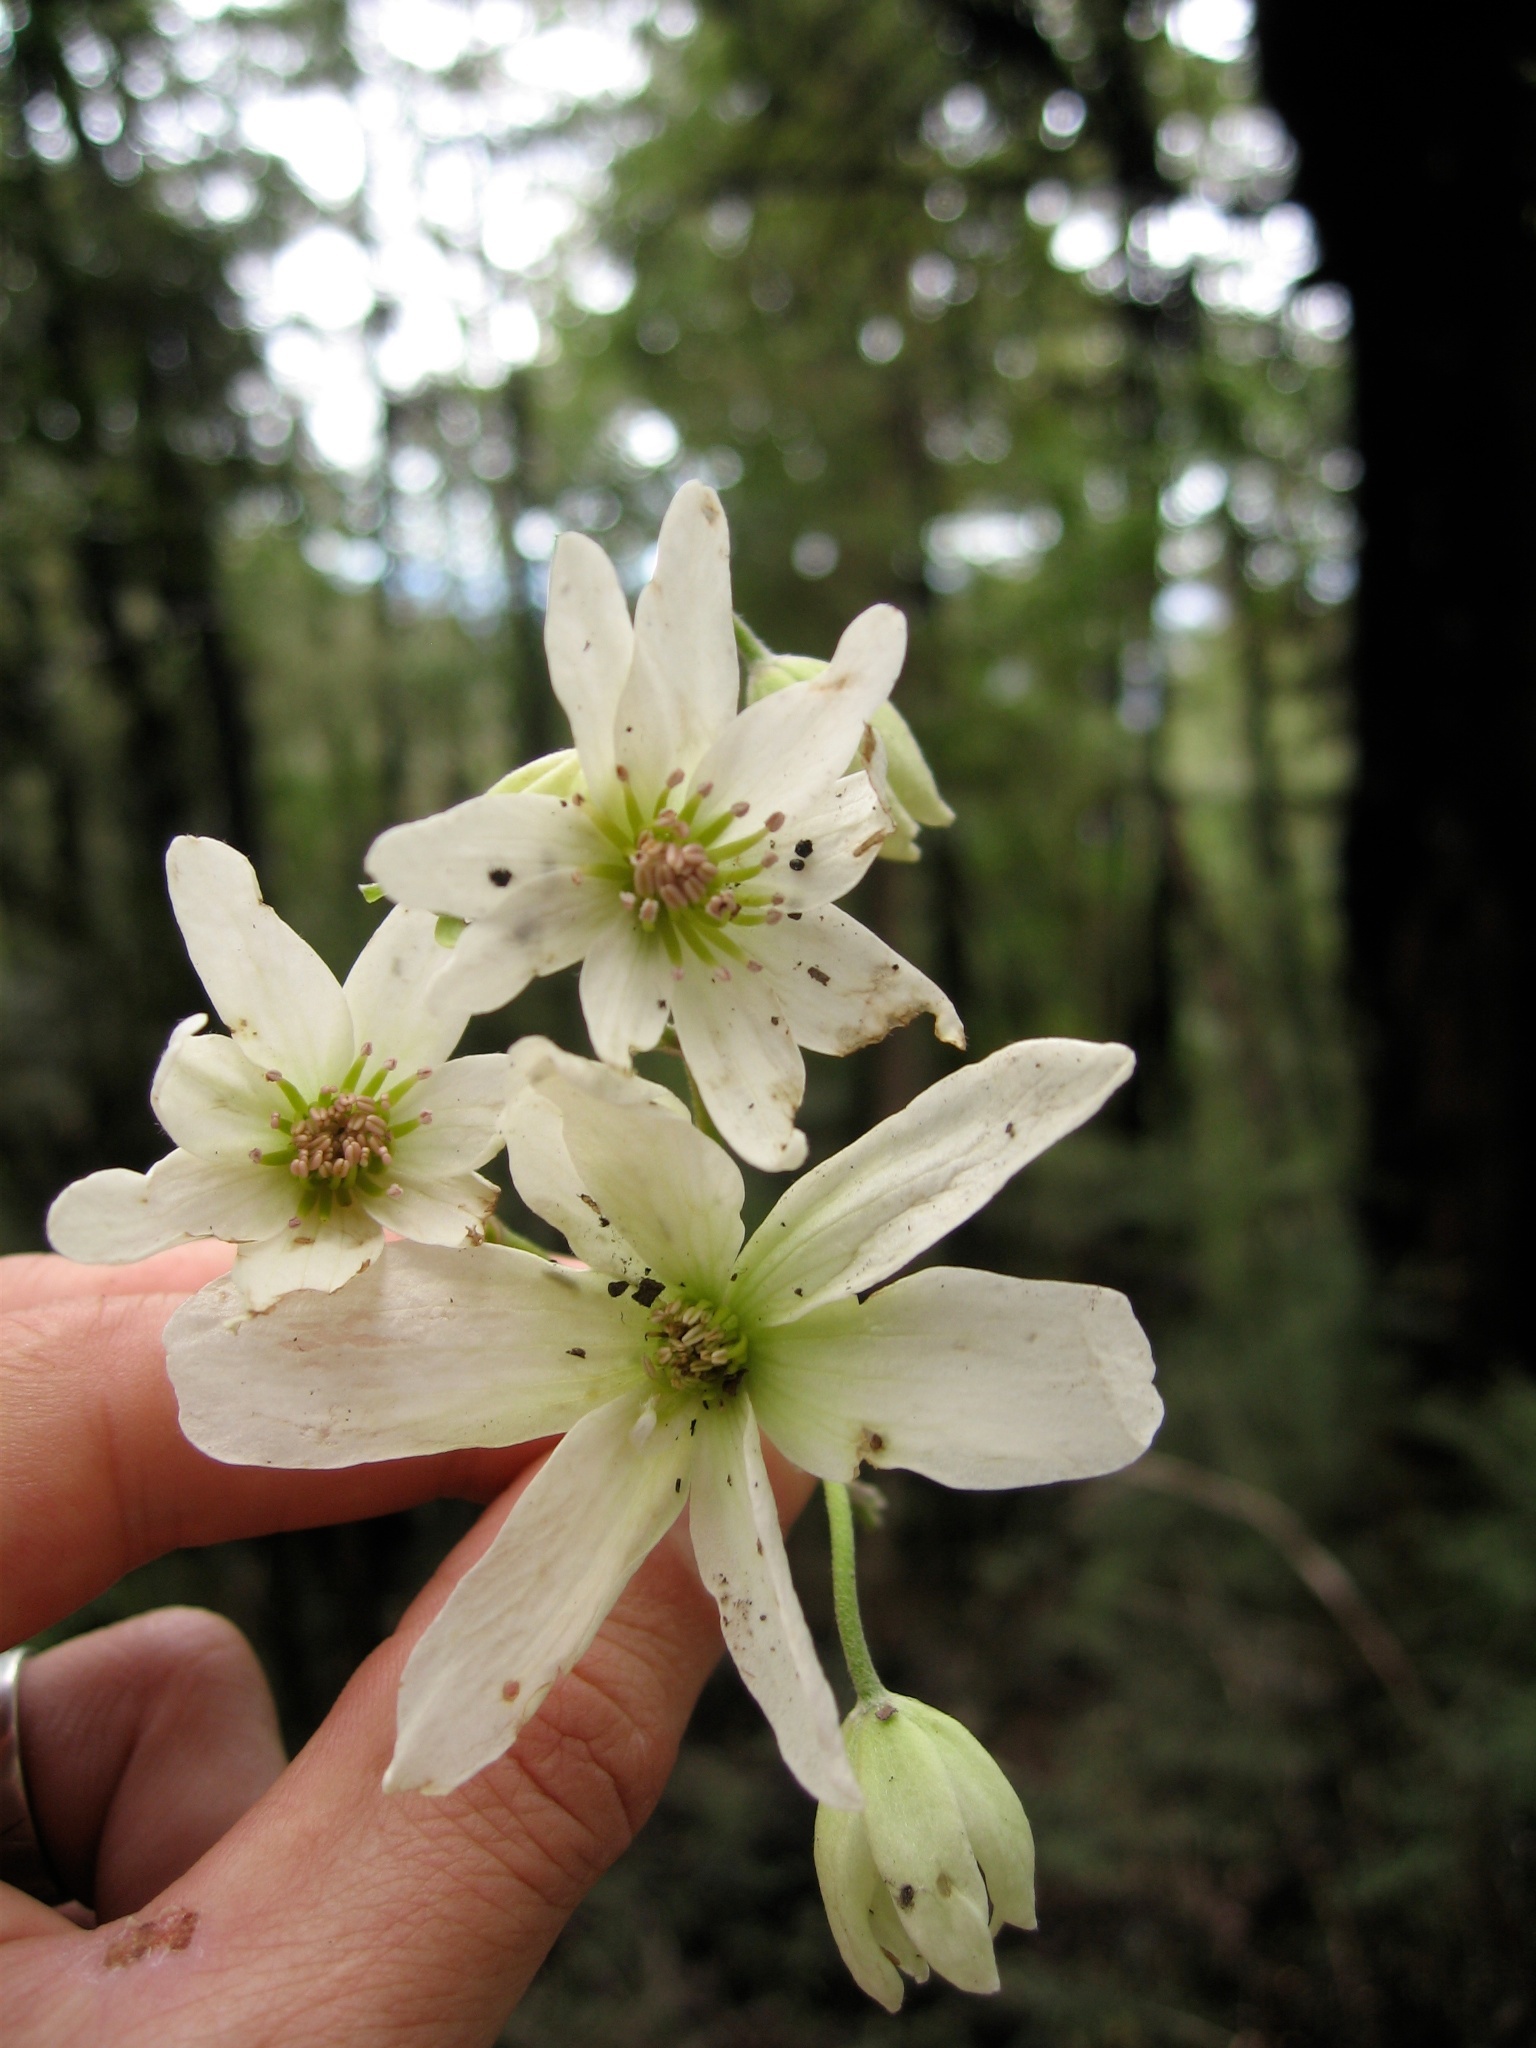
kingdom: Plantae
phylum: Tracheophyta
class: Magnoliopsida
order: Ranunculales
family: Ranunculaceae
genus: Clematis
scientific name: Clematis paniculata
